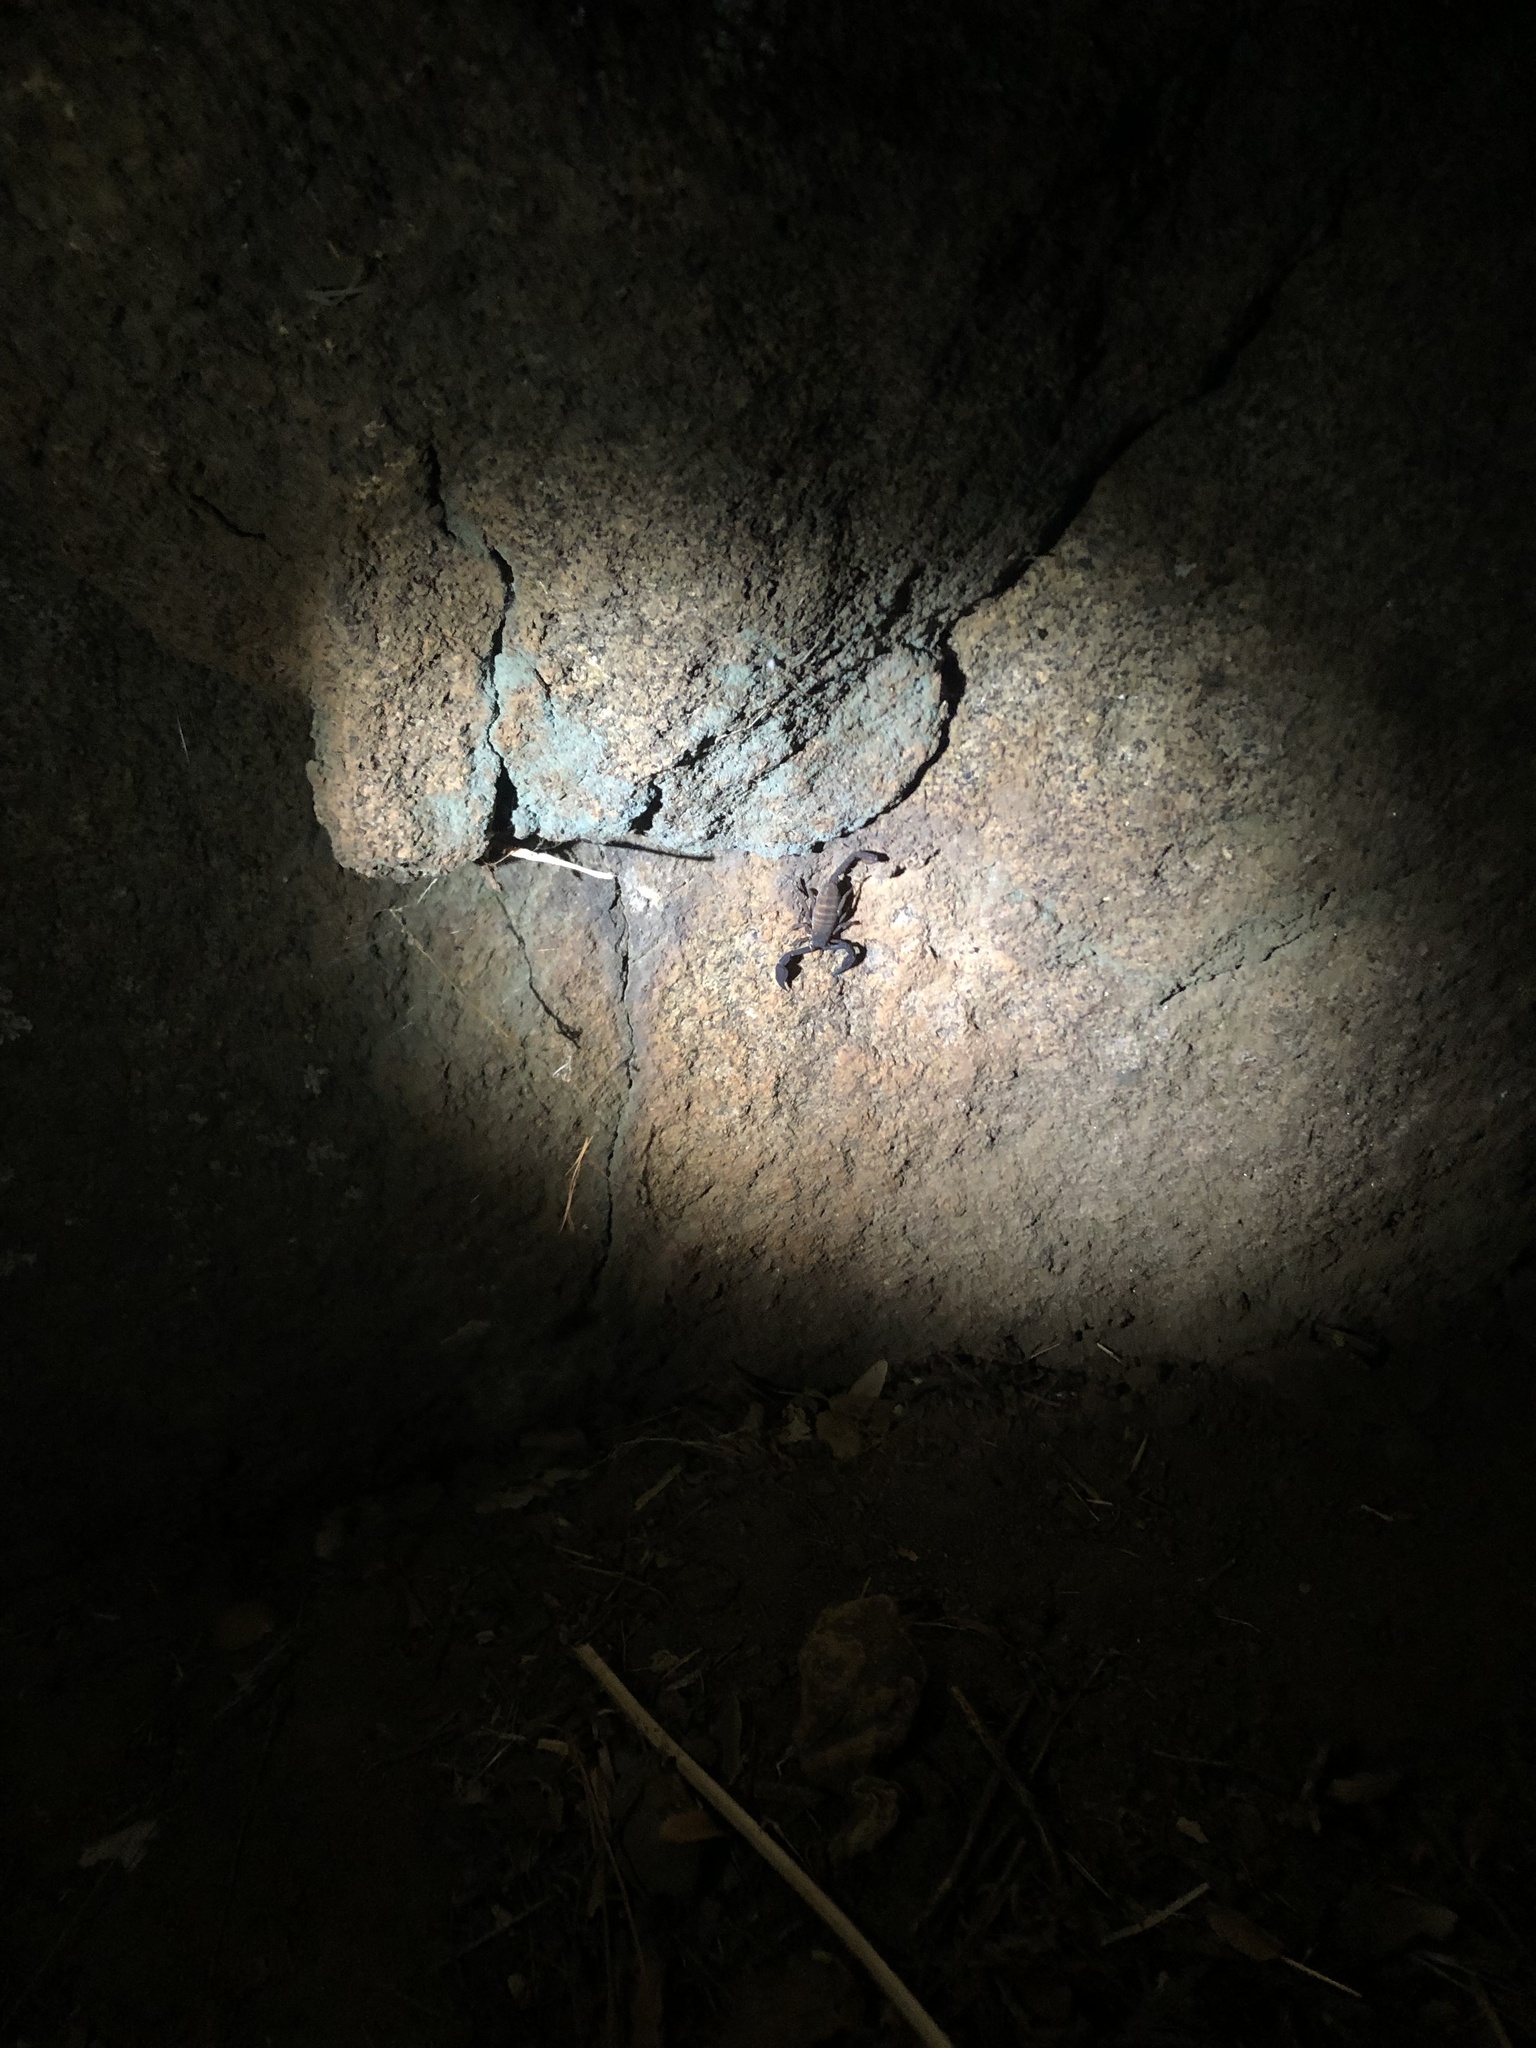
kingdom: Animalia
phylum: Arthropoda
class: Arachnida
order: Scorpiones
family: Vaejovidae
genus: Kovarikia
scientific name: Kovarikia williamsi
